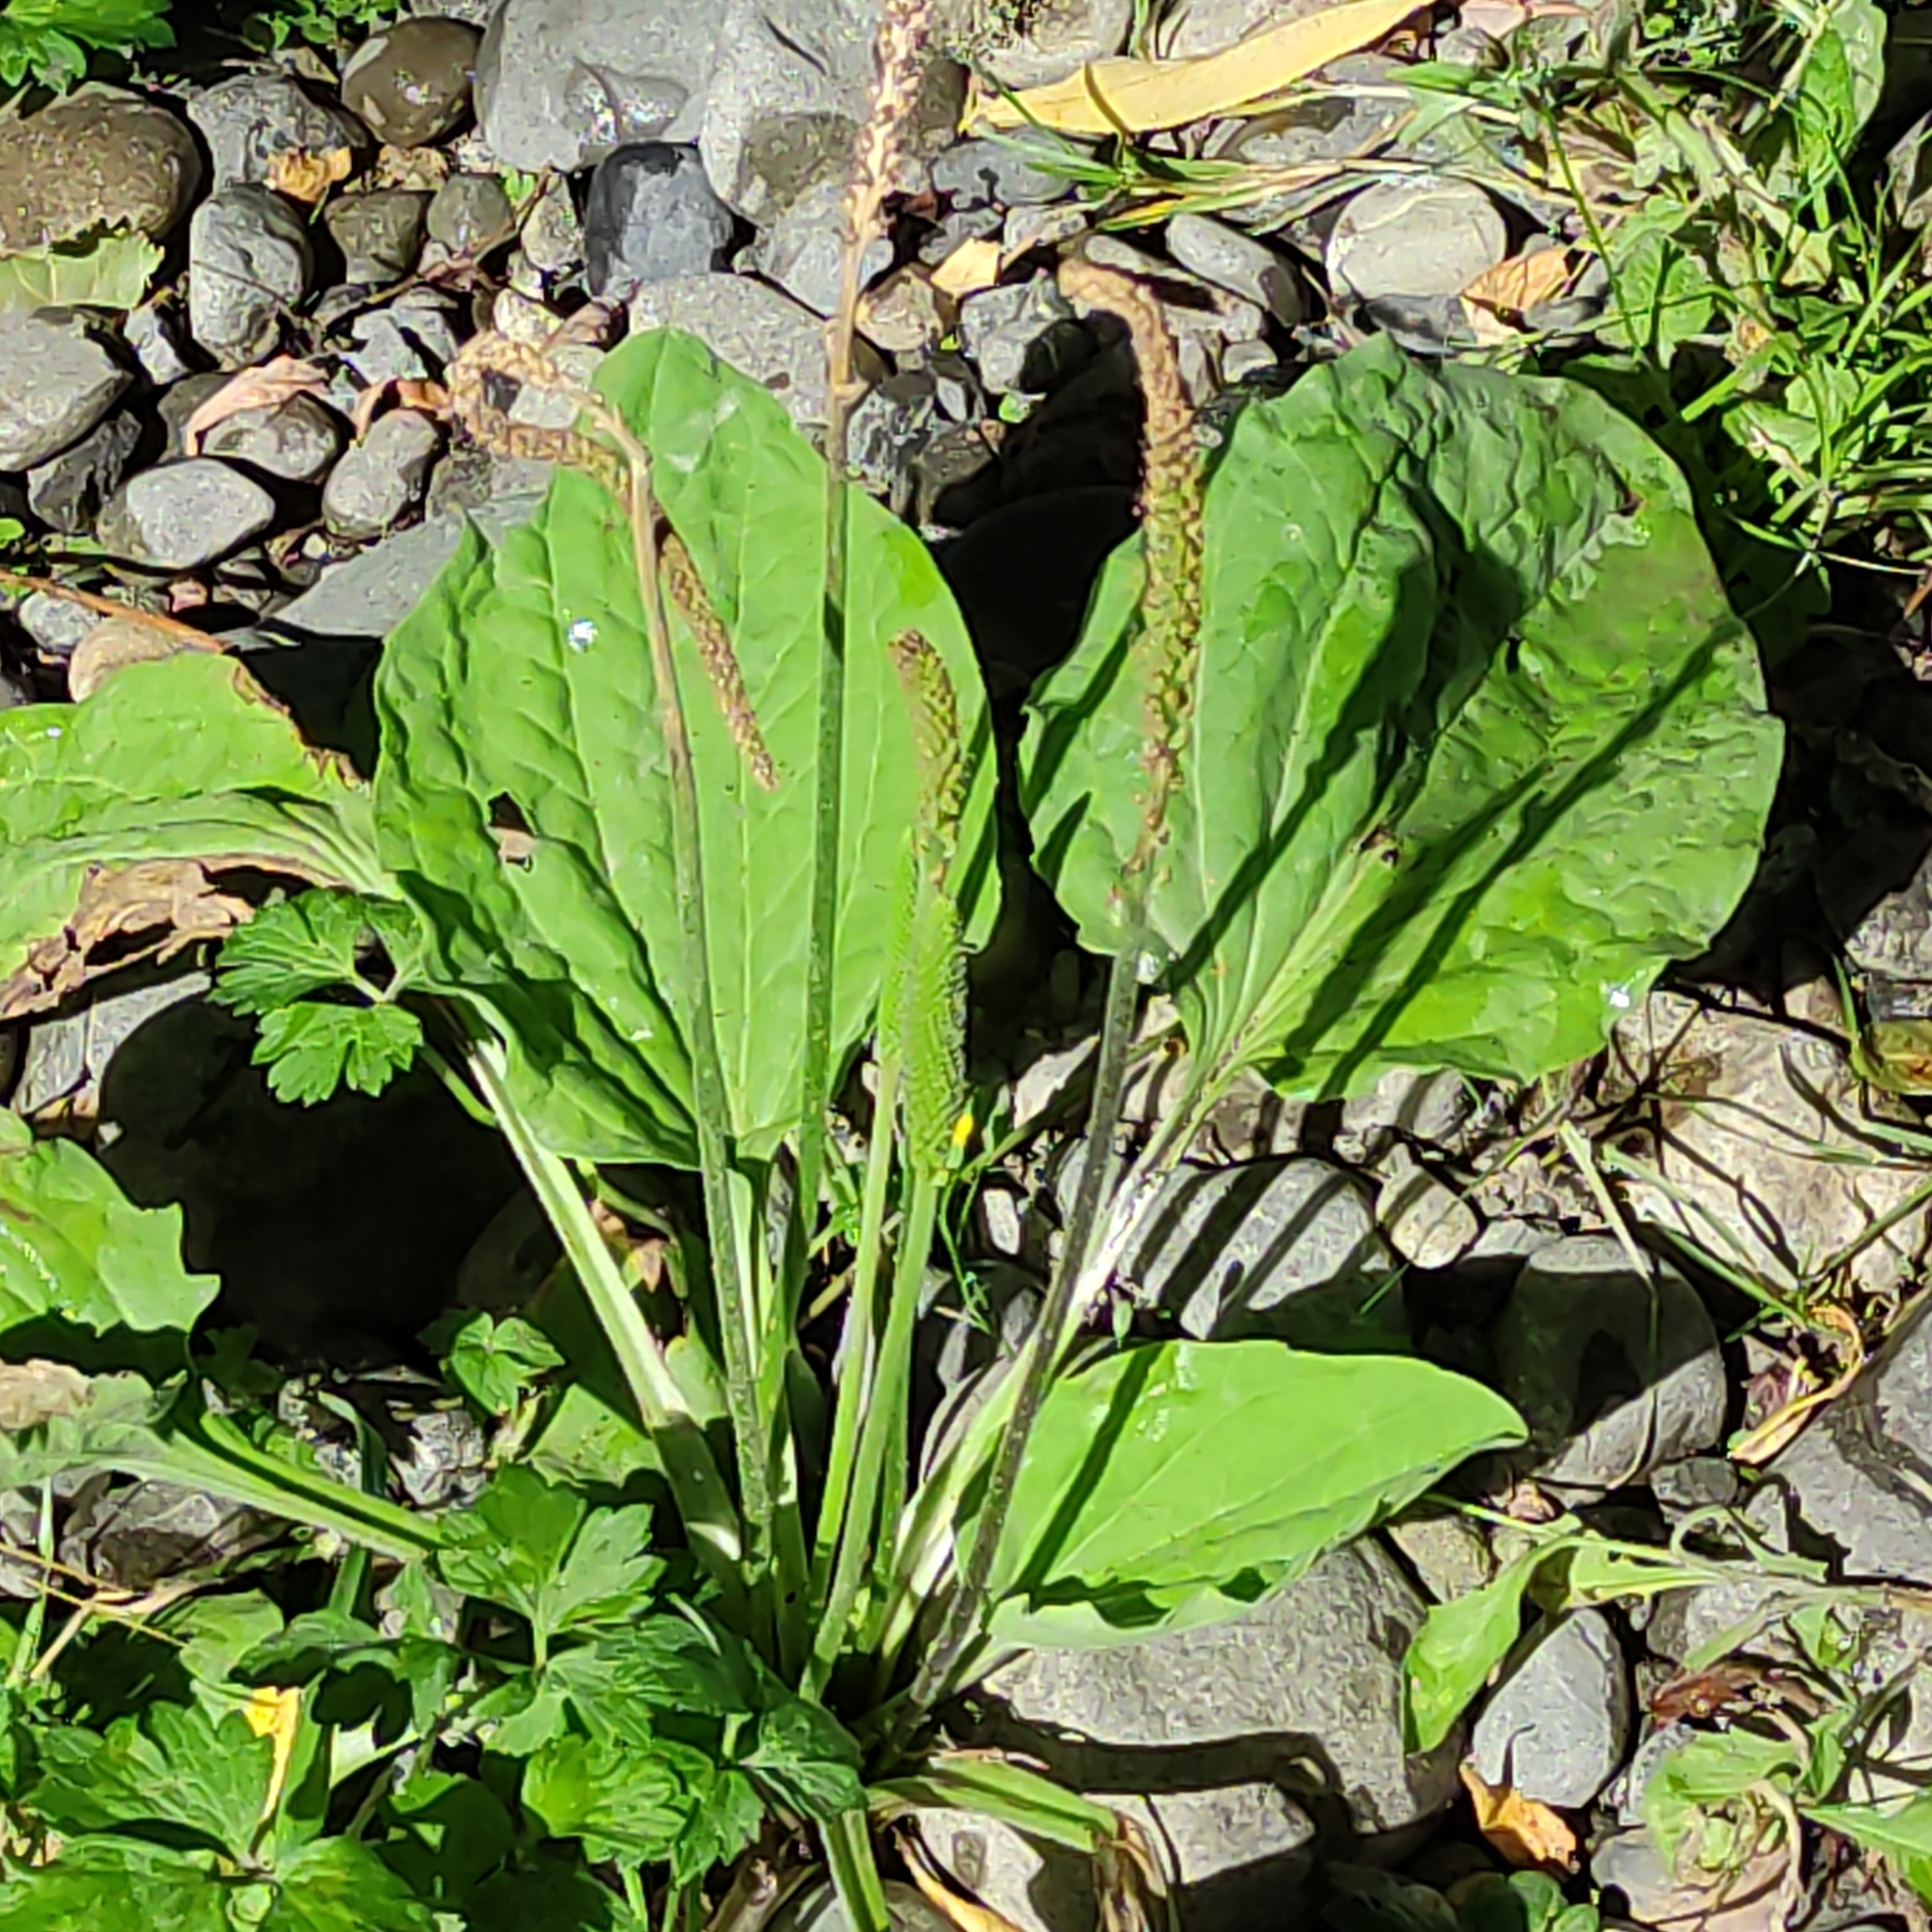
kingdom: Plantae
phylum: Tracheophyta
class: Magnoliopsida
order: Lamiales
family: Plantaginaceae
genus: Plantago
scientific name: Plantago major
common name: Common plantain
